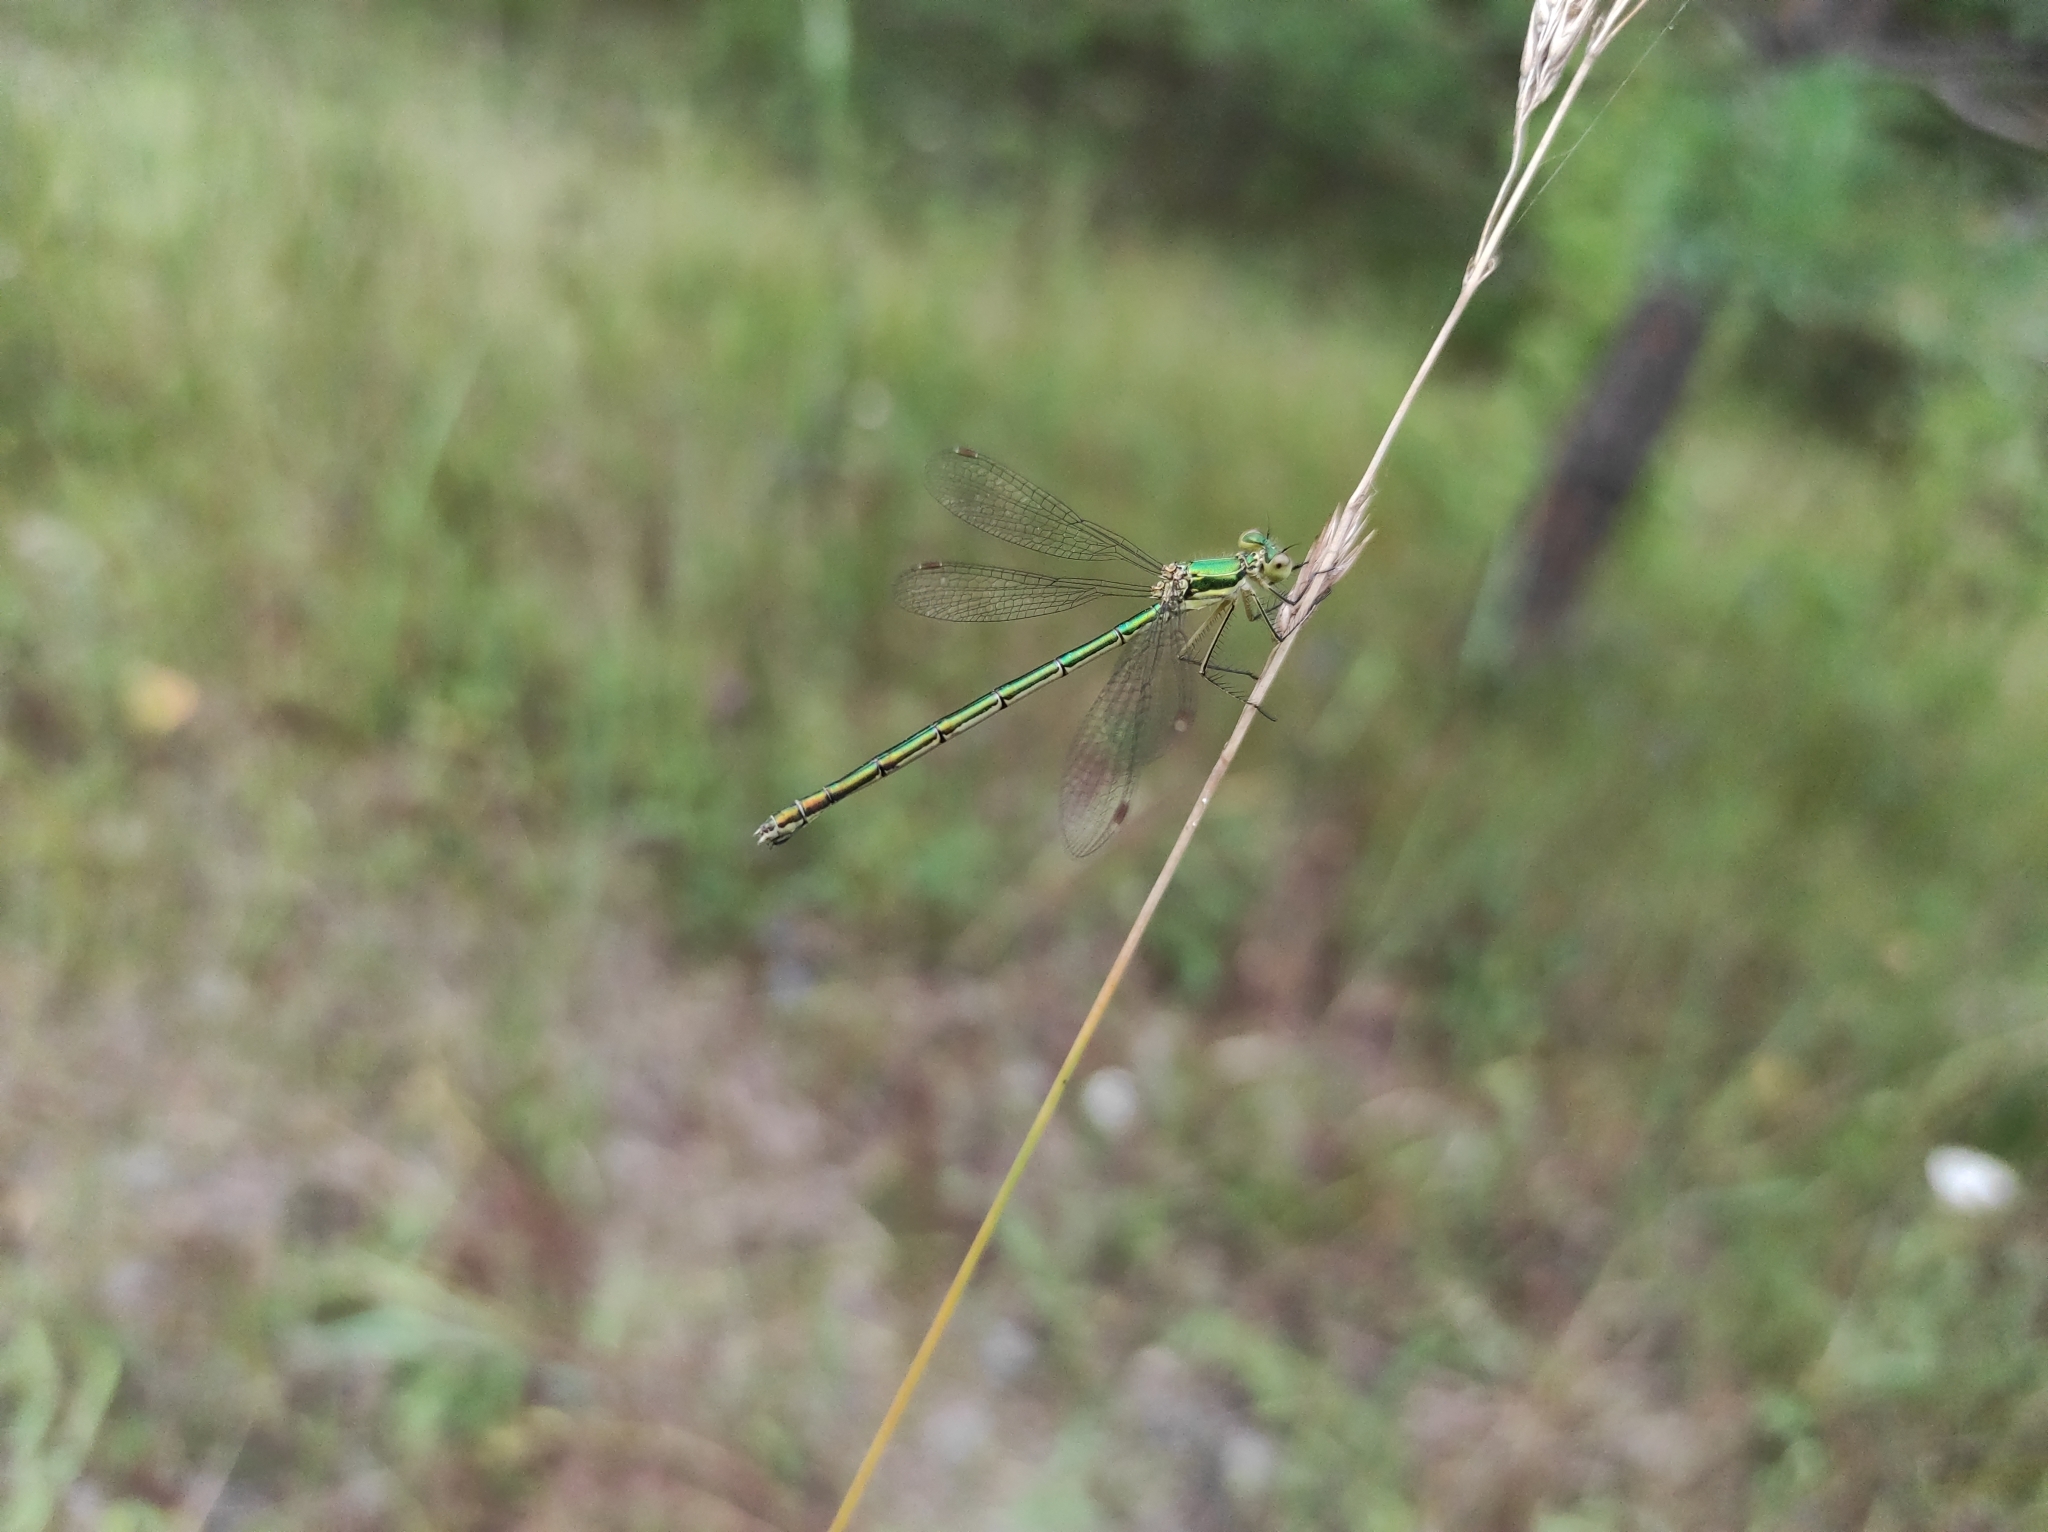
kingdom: Animalia
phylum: Arthropoda
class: Insecta
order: Odonata
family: Lestidae
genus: Lestes
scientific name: Lestes virens
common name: Small emerald spreadwing
